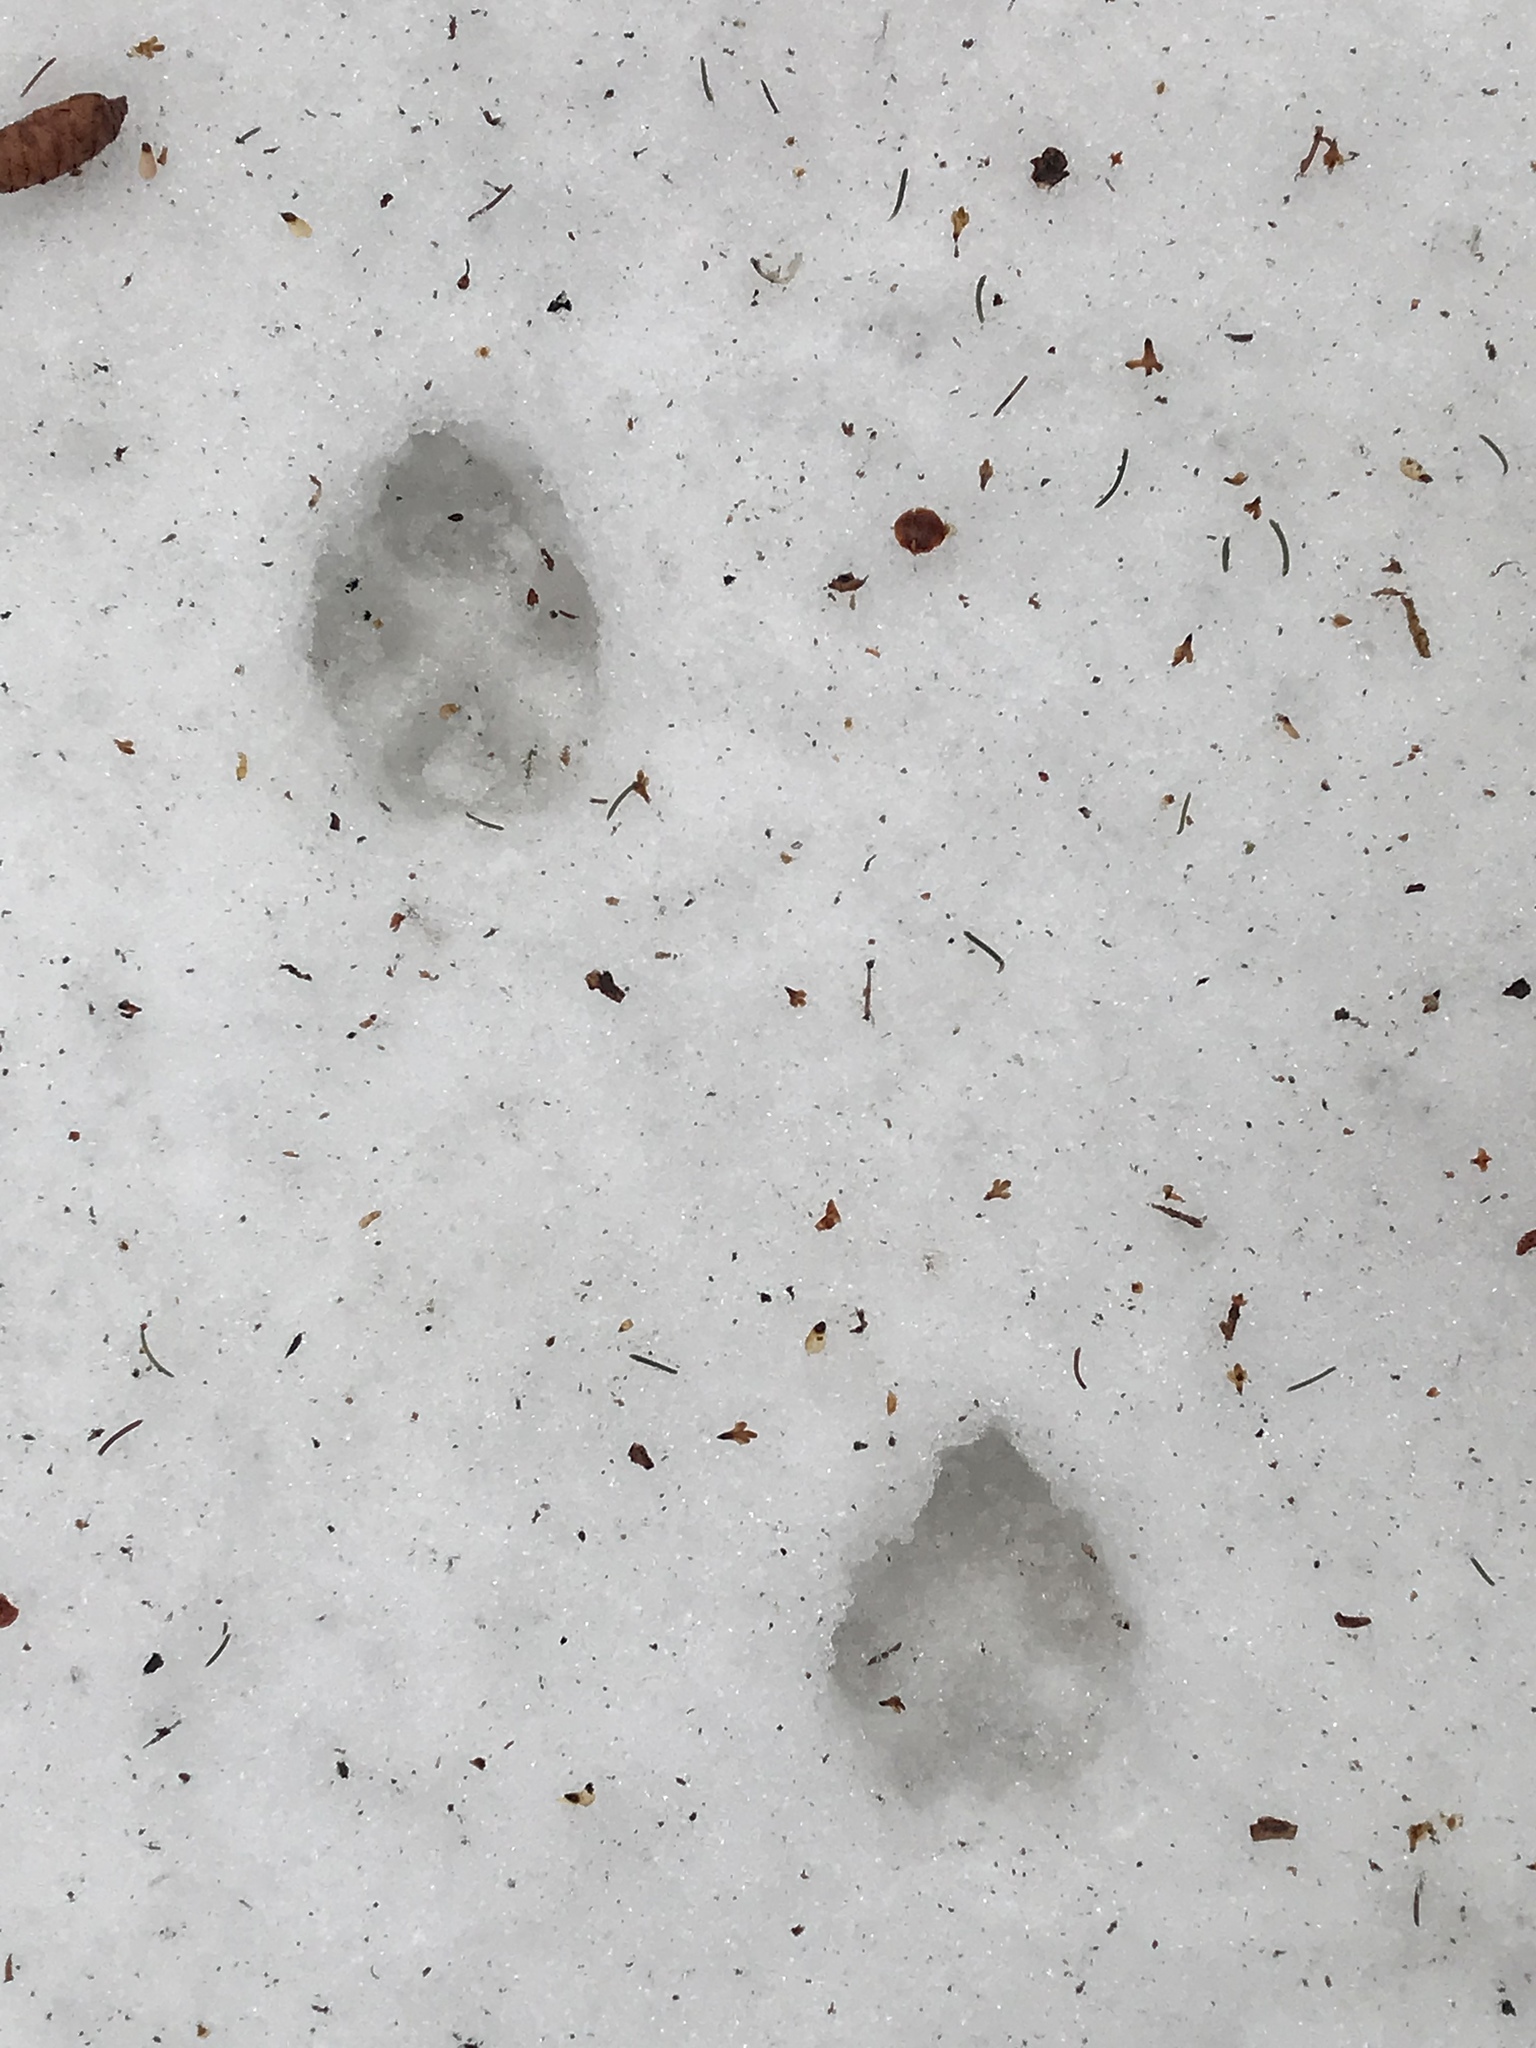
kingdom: Animalia
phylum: Chordata
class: Mammalia
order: Carnivora
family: Canidae
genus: Canis
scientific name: Canis latrans
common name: Coyote
